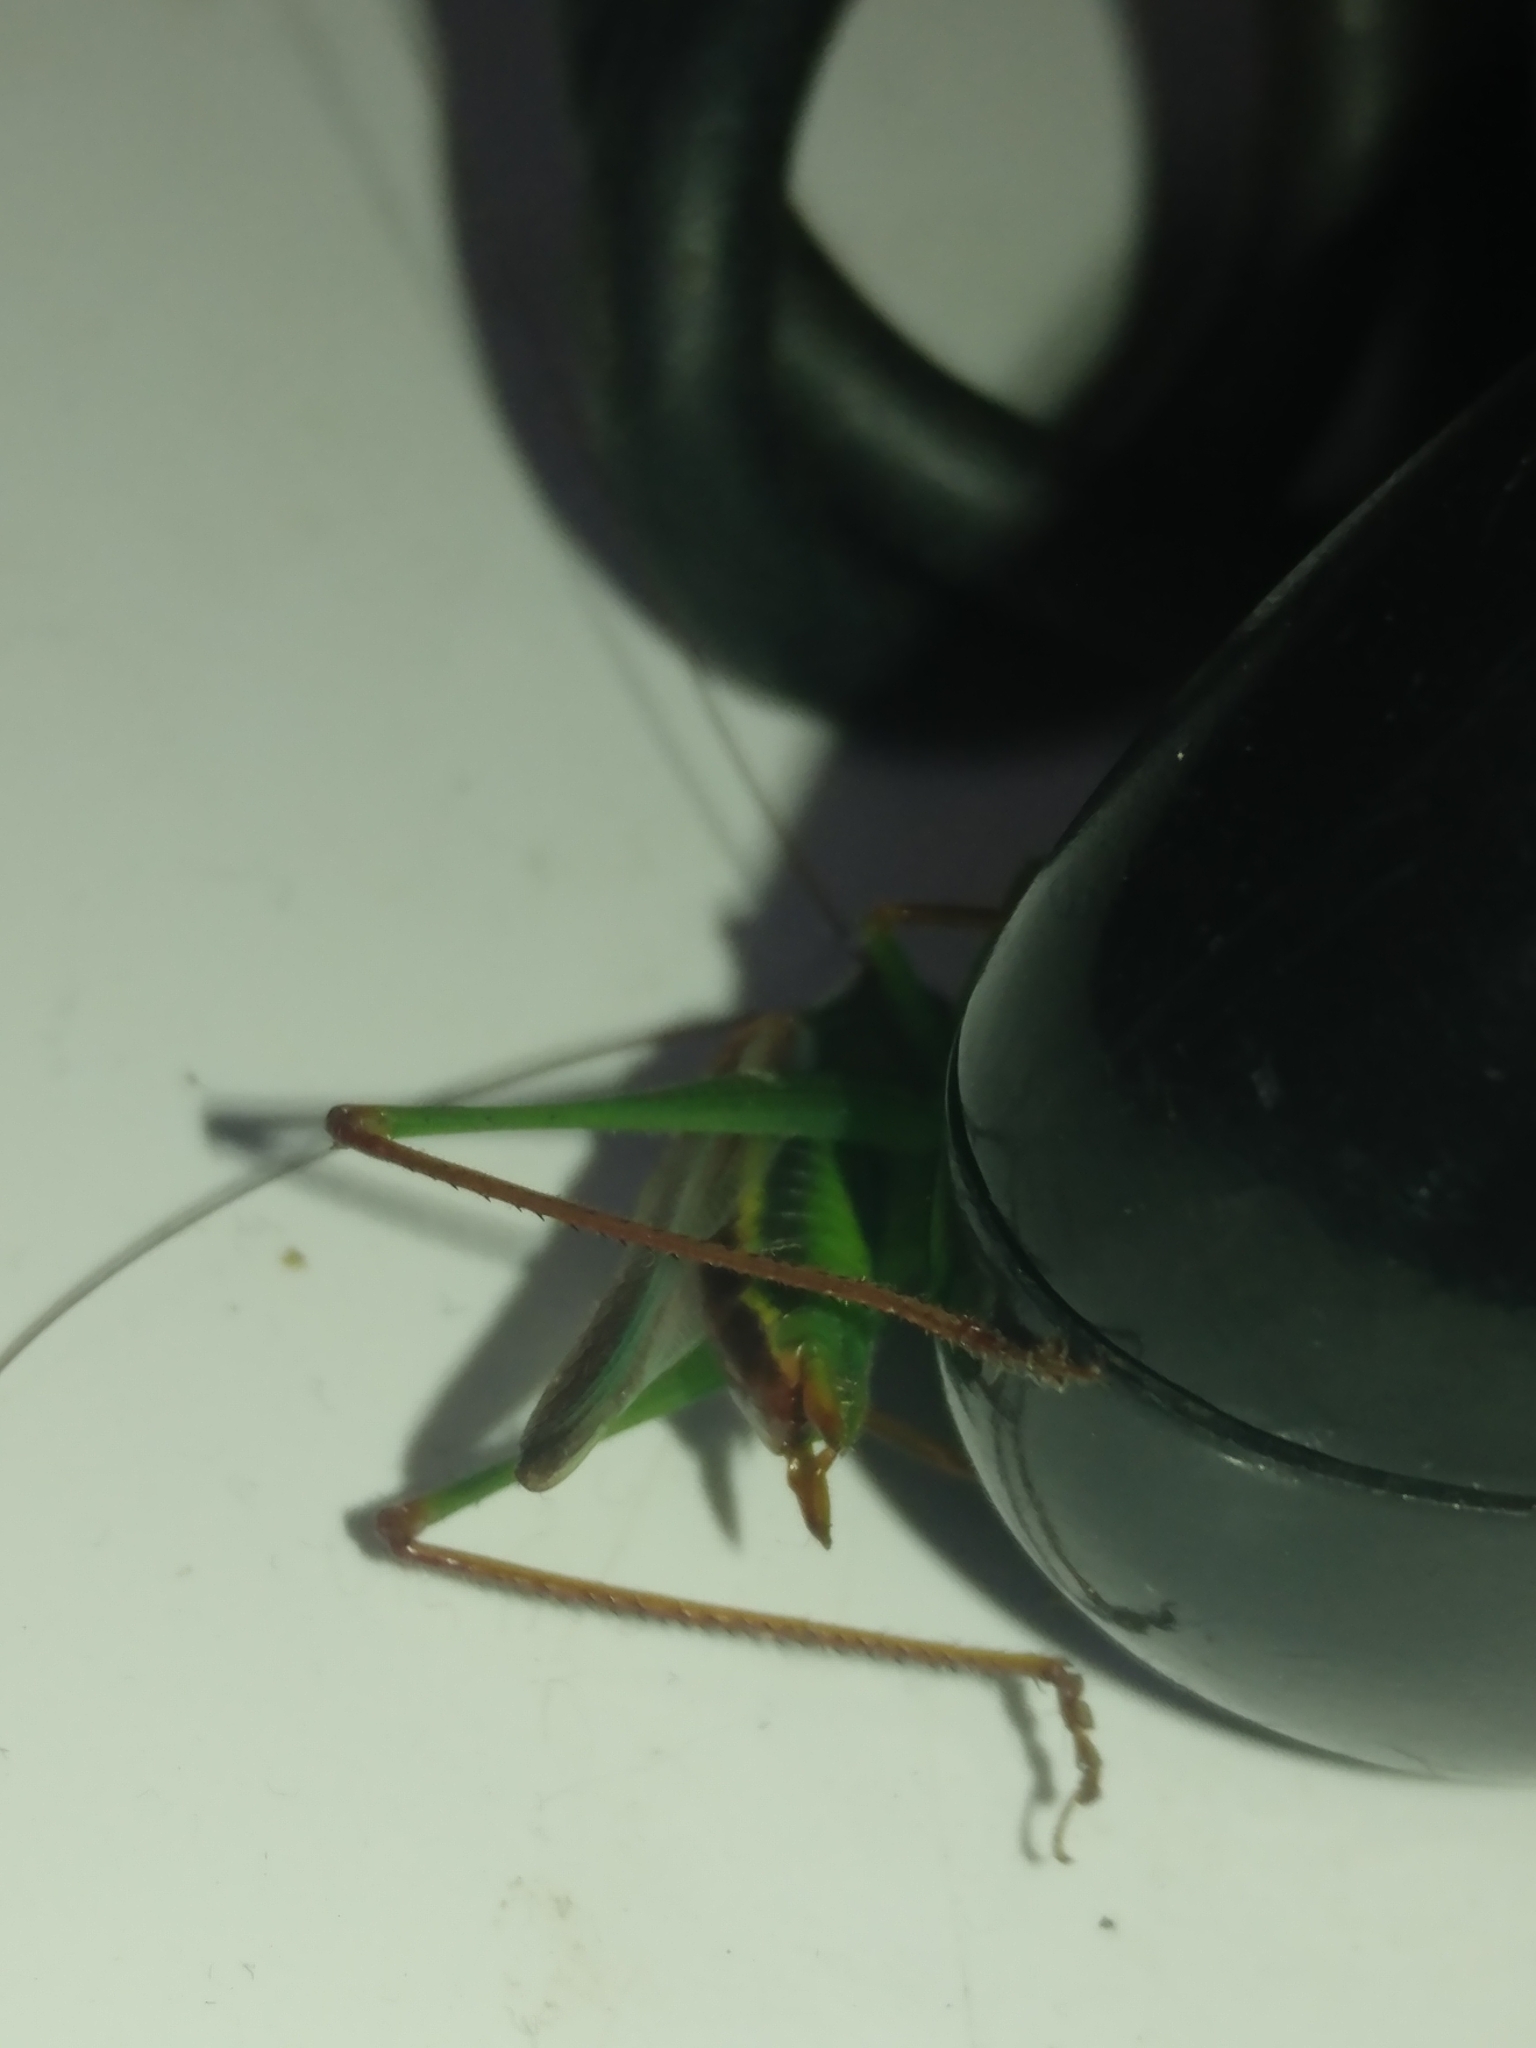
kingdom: Animalia
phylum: Arthropoda
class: Insecta
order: Orthoptera
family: Tettigoniidae
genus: Orchelimum
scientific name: Orchelimum minor
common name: Lesser pine meadow katydid
